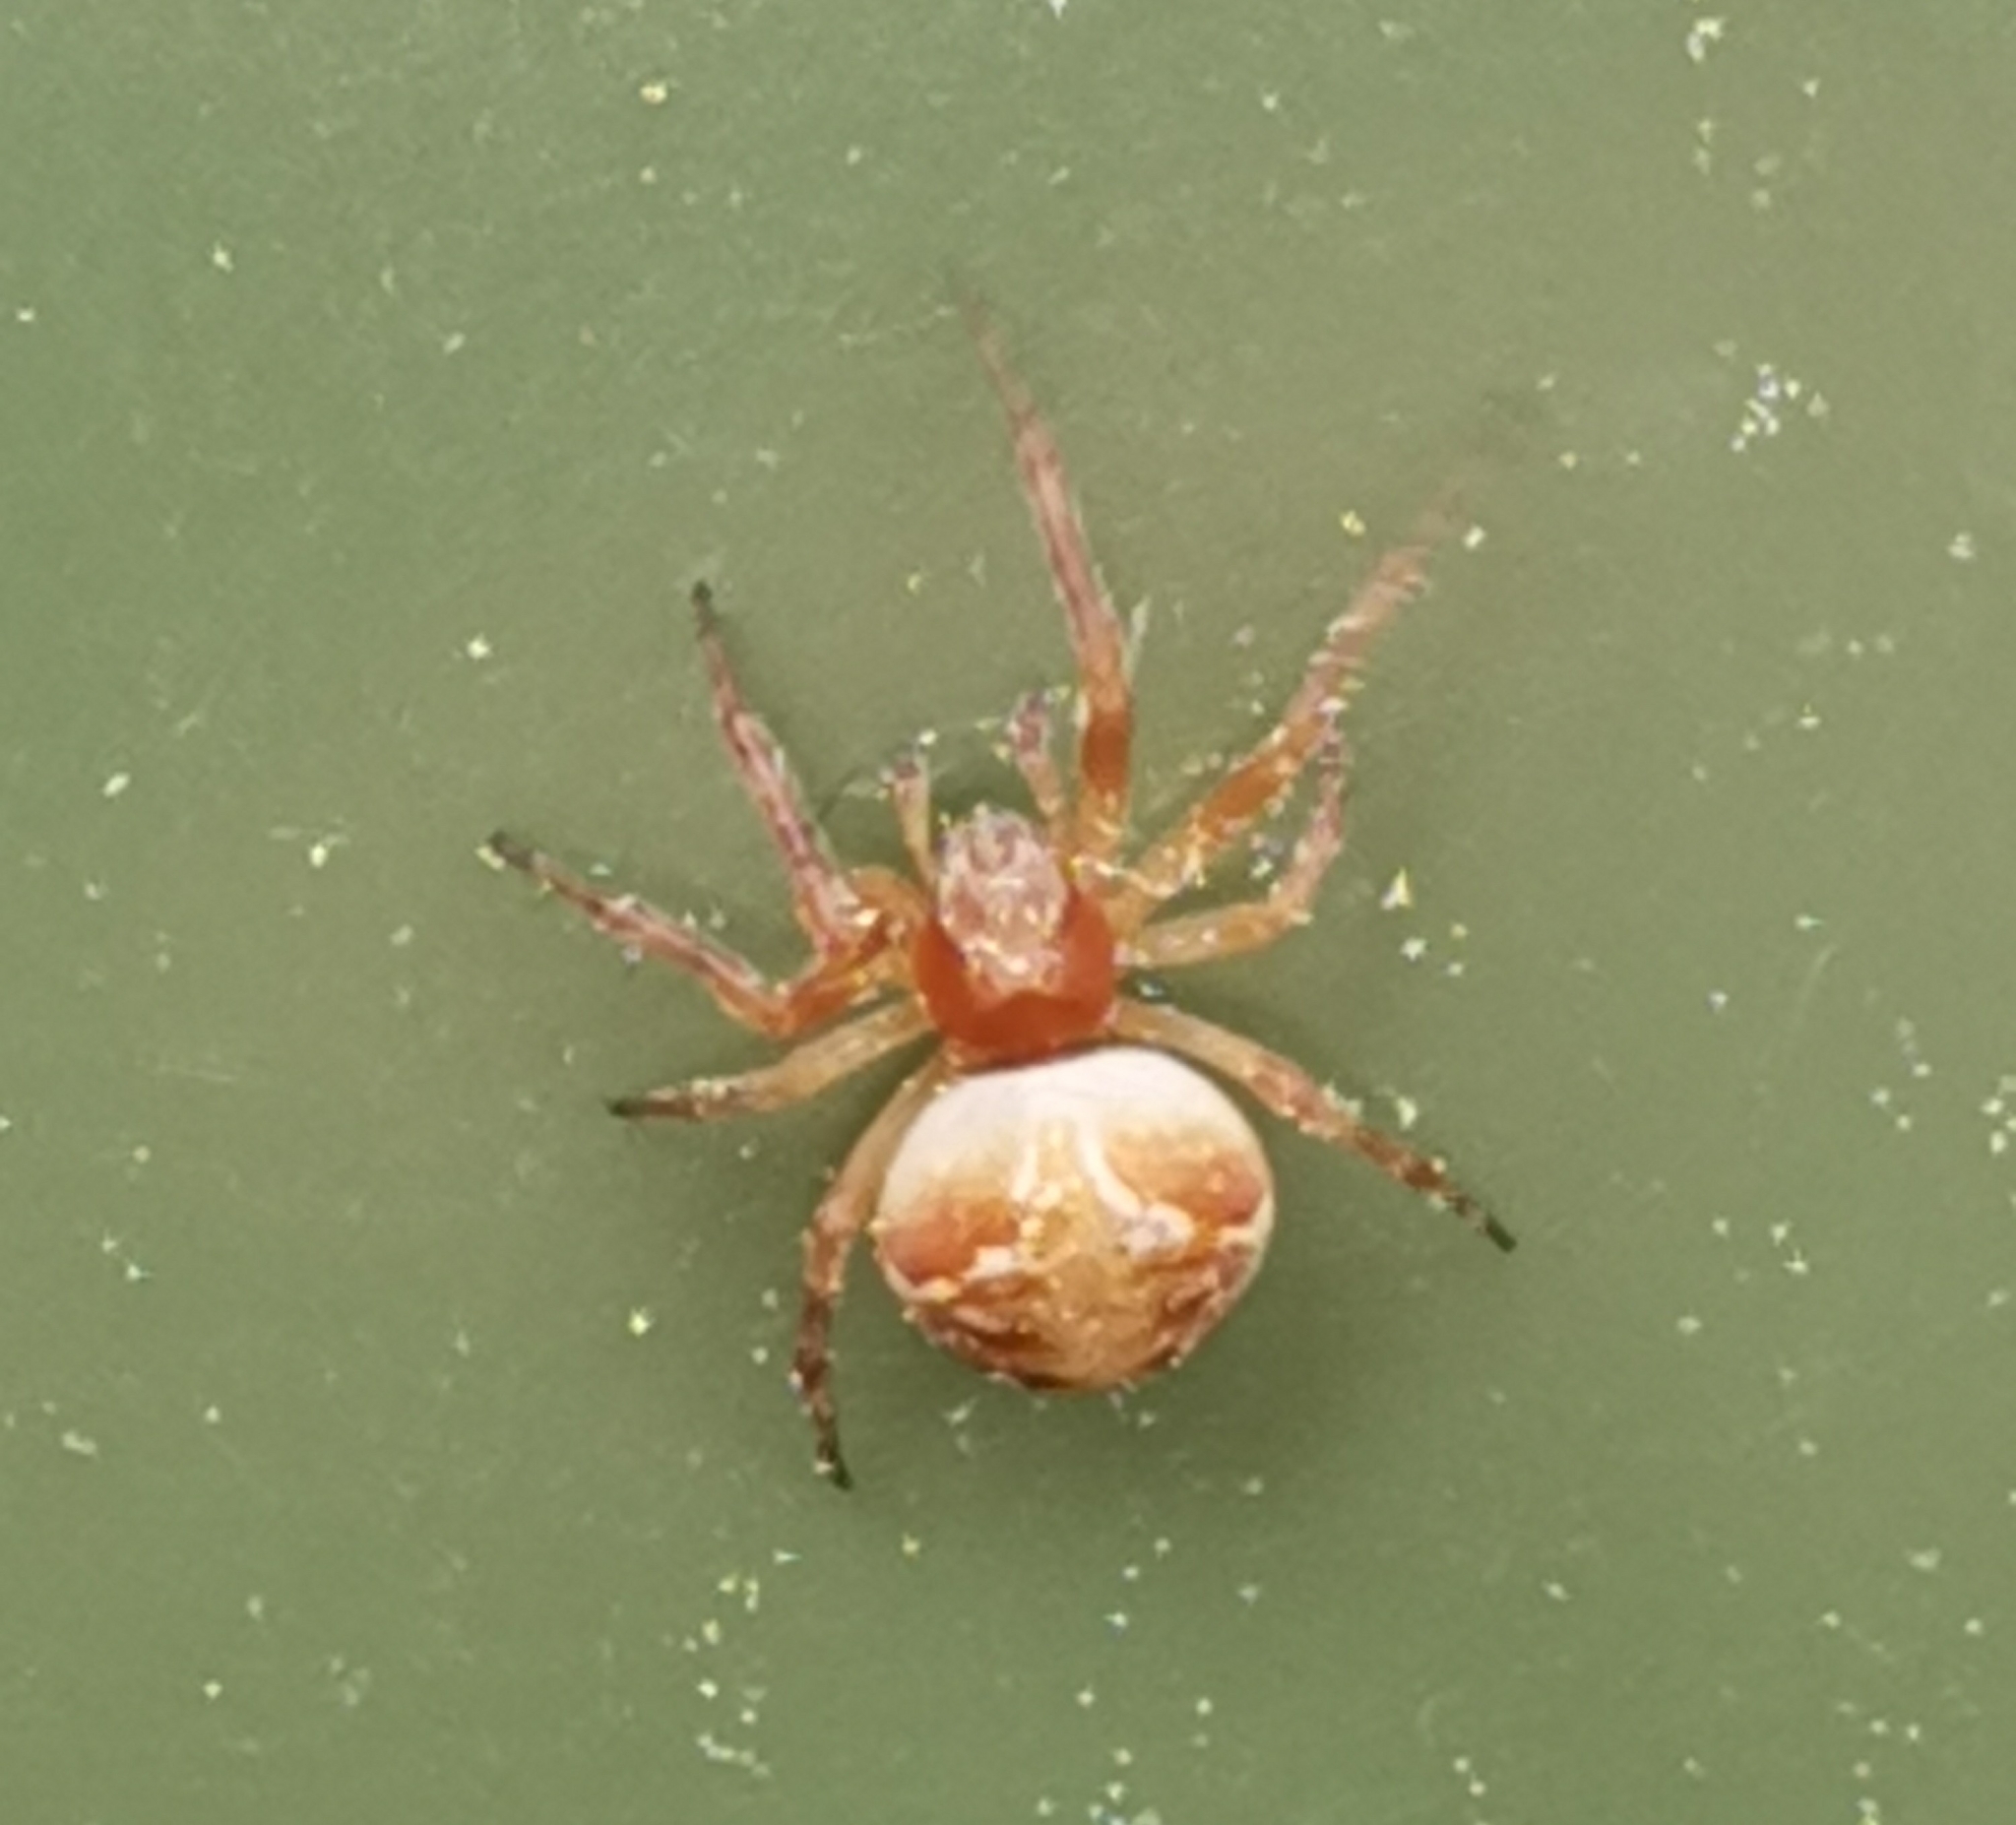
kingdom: Animalia
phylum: Arthropoda
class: Arachnida
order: Araneae
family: Araneidae
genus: Araneus
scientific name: Araneus diadematus
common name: Cross orbweaver
